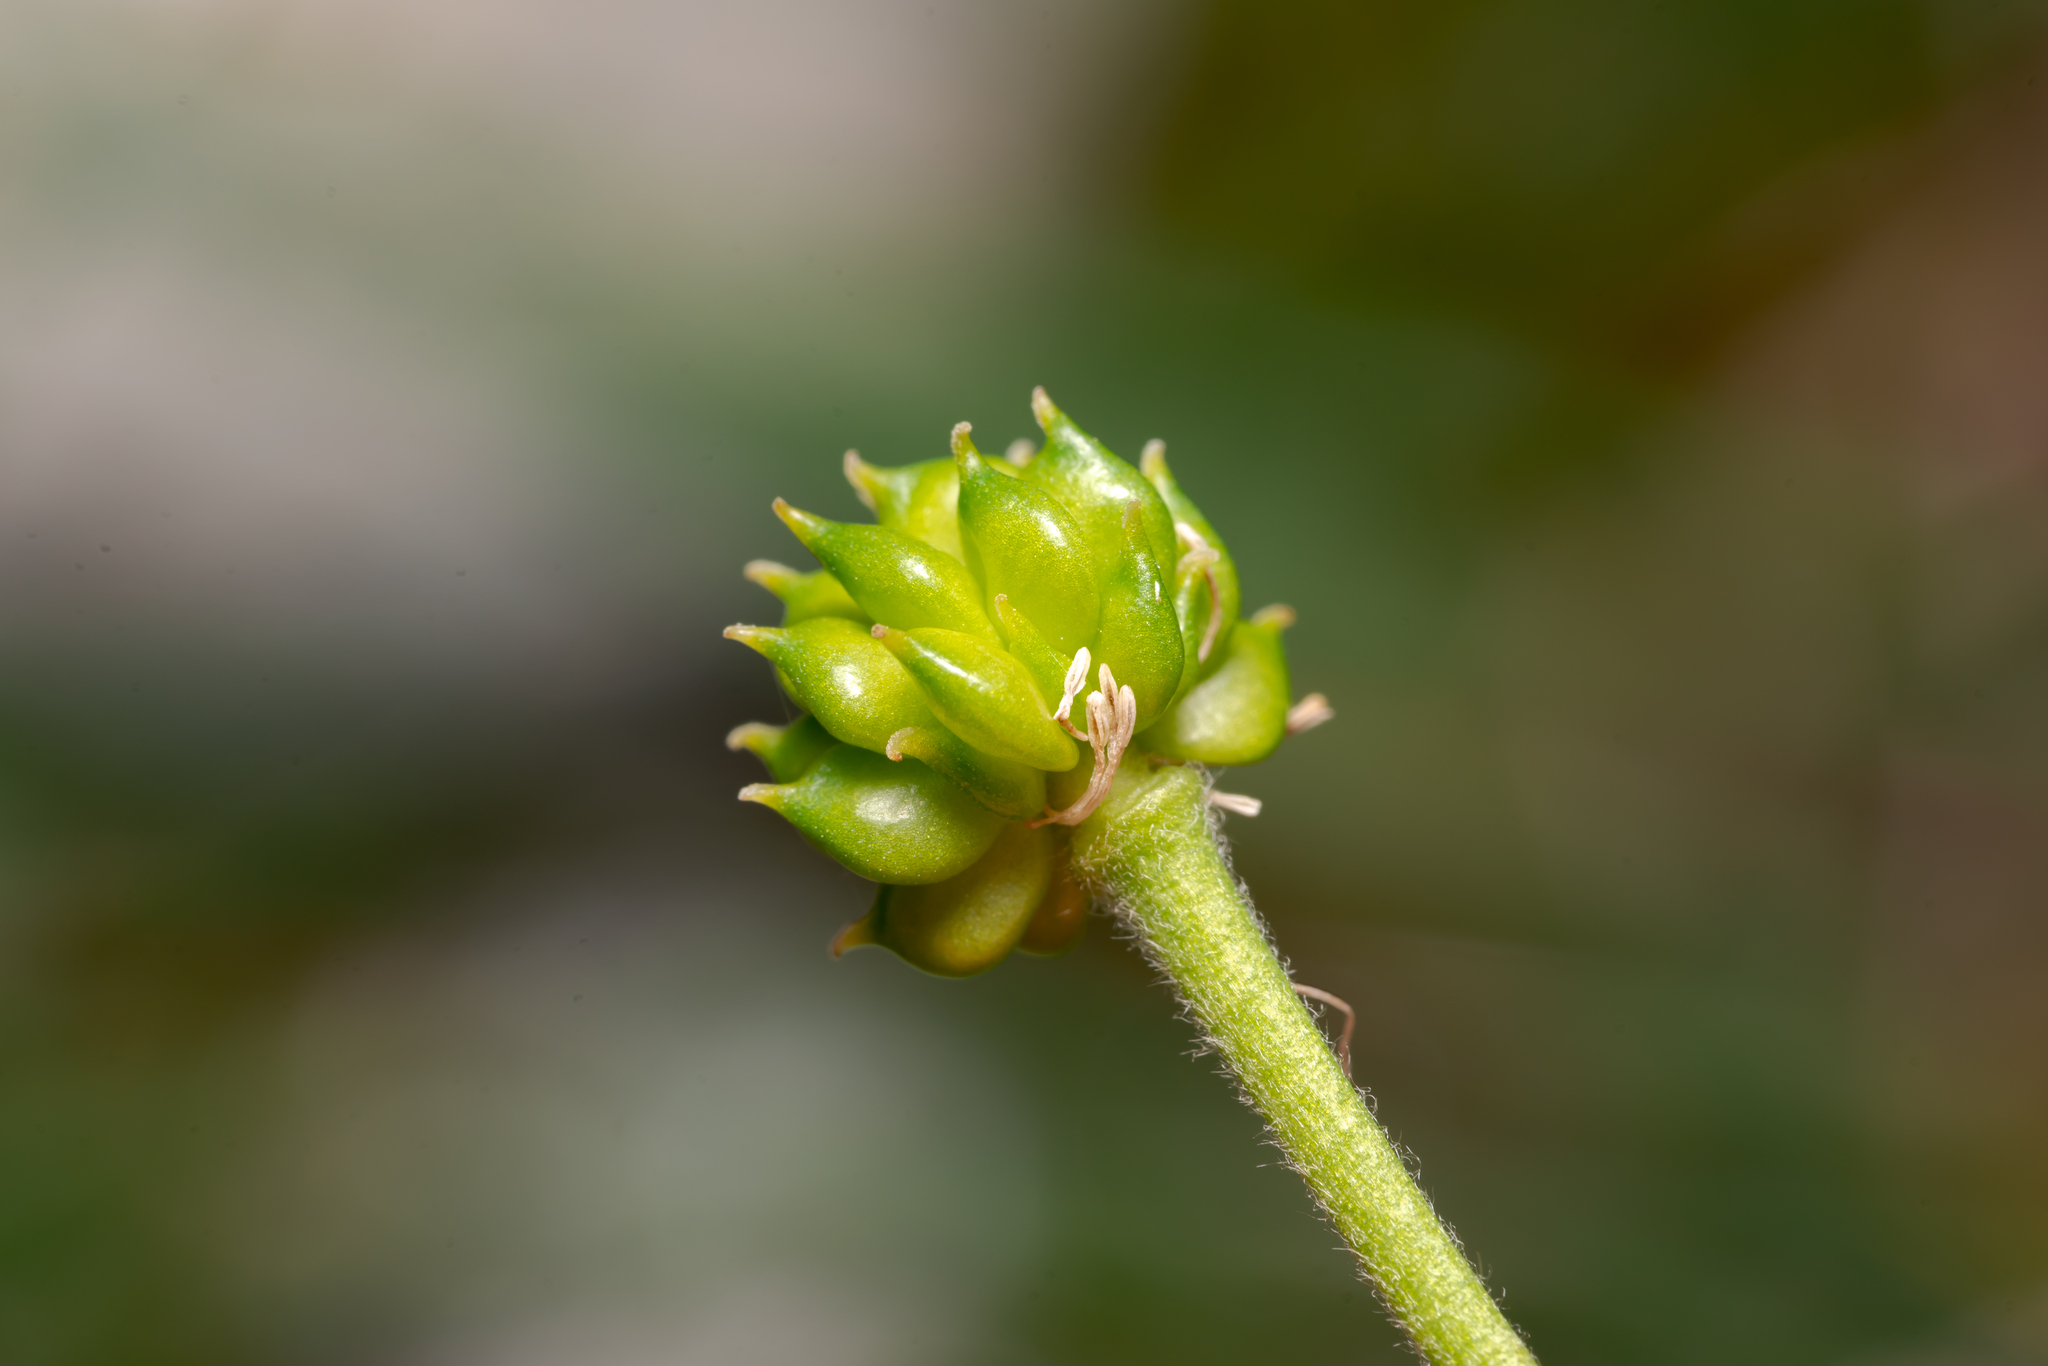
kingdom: Plantae
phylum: Tracheophyta
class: Magnoliopsida
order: Ranunculales
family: Ranunculaceae
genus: Ranunculus
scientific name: Ranunculus aconitifolius
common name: Aconite-leaved buttercup
